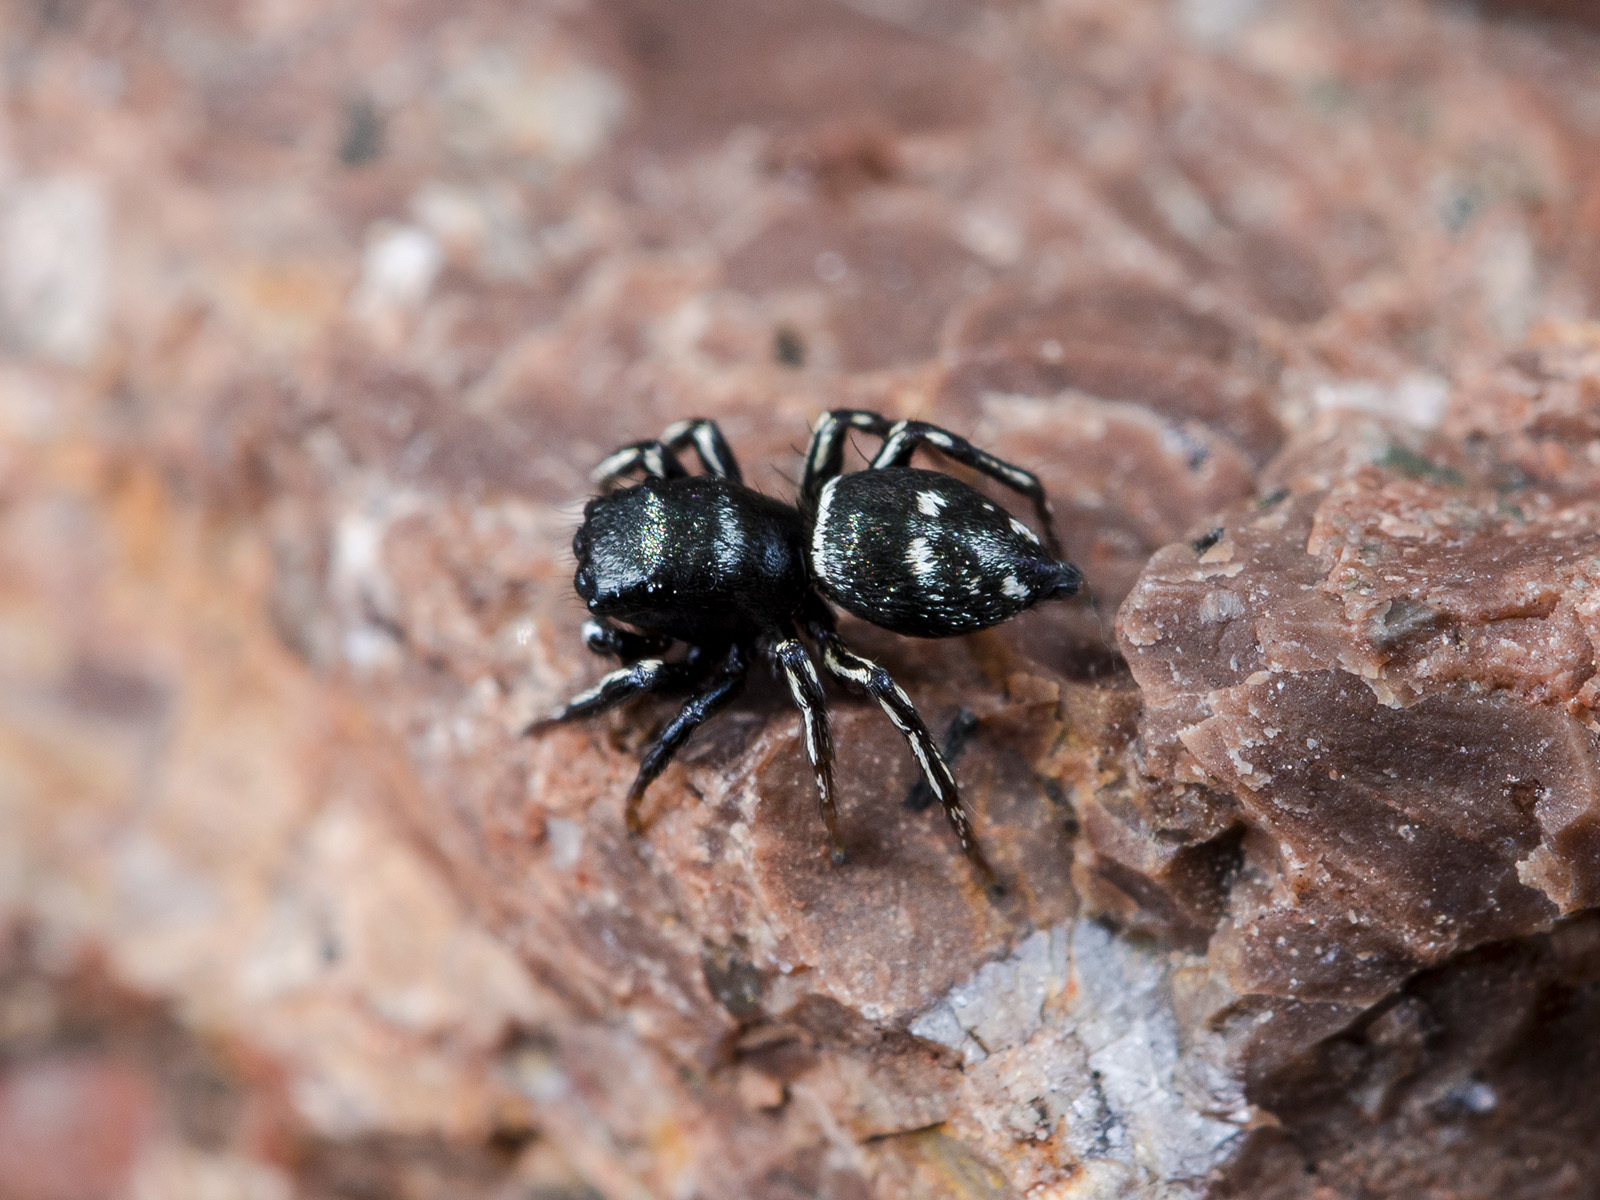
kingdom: Animalia
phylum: Arthropoda
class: Arachnida
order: Araneae
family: Salticidae
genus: Heliophanus
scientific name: Heliophanus curvidens
